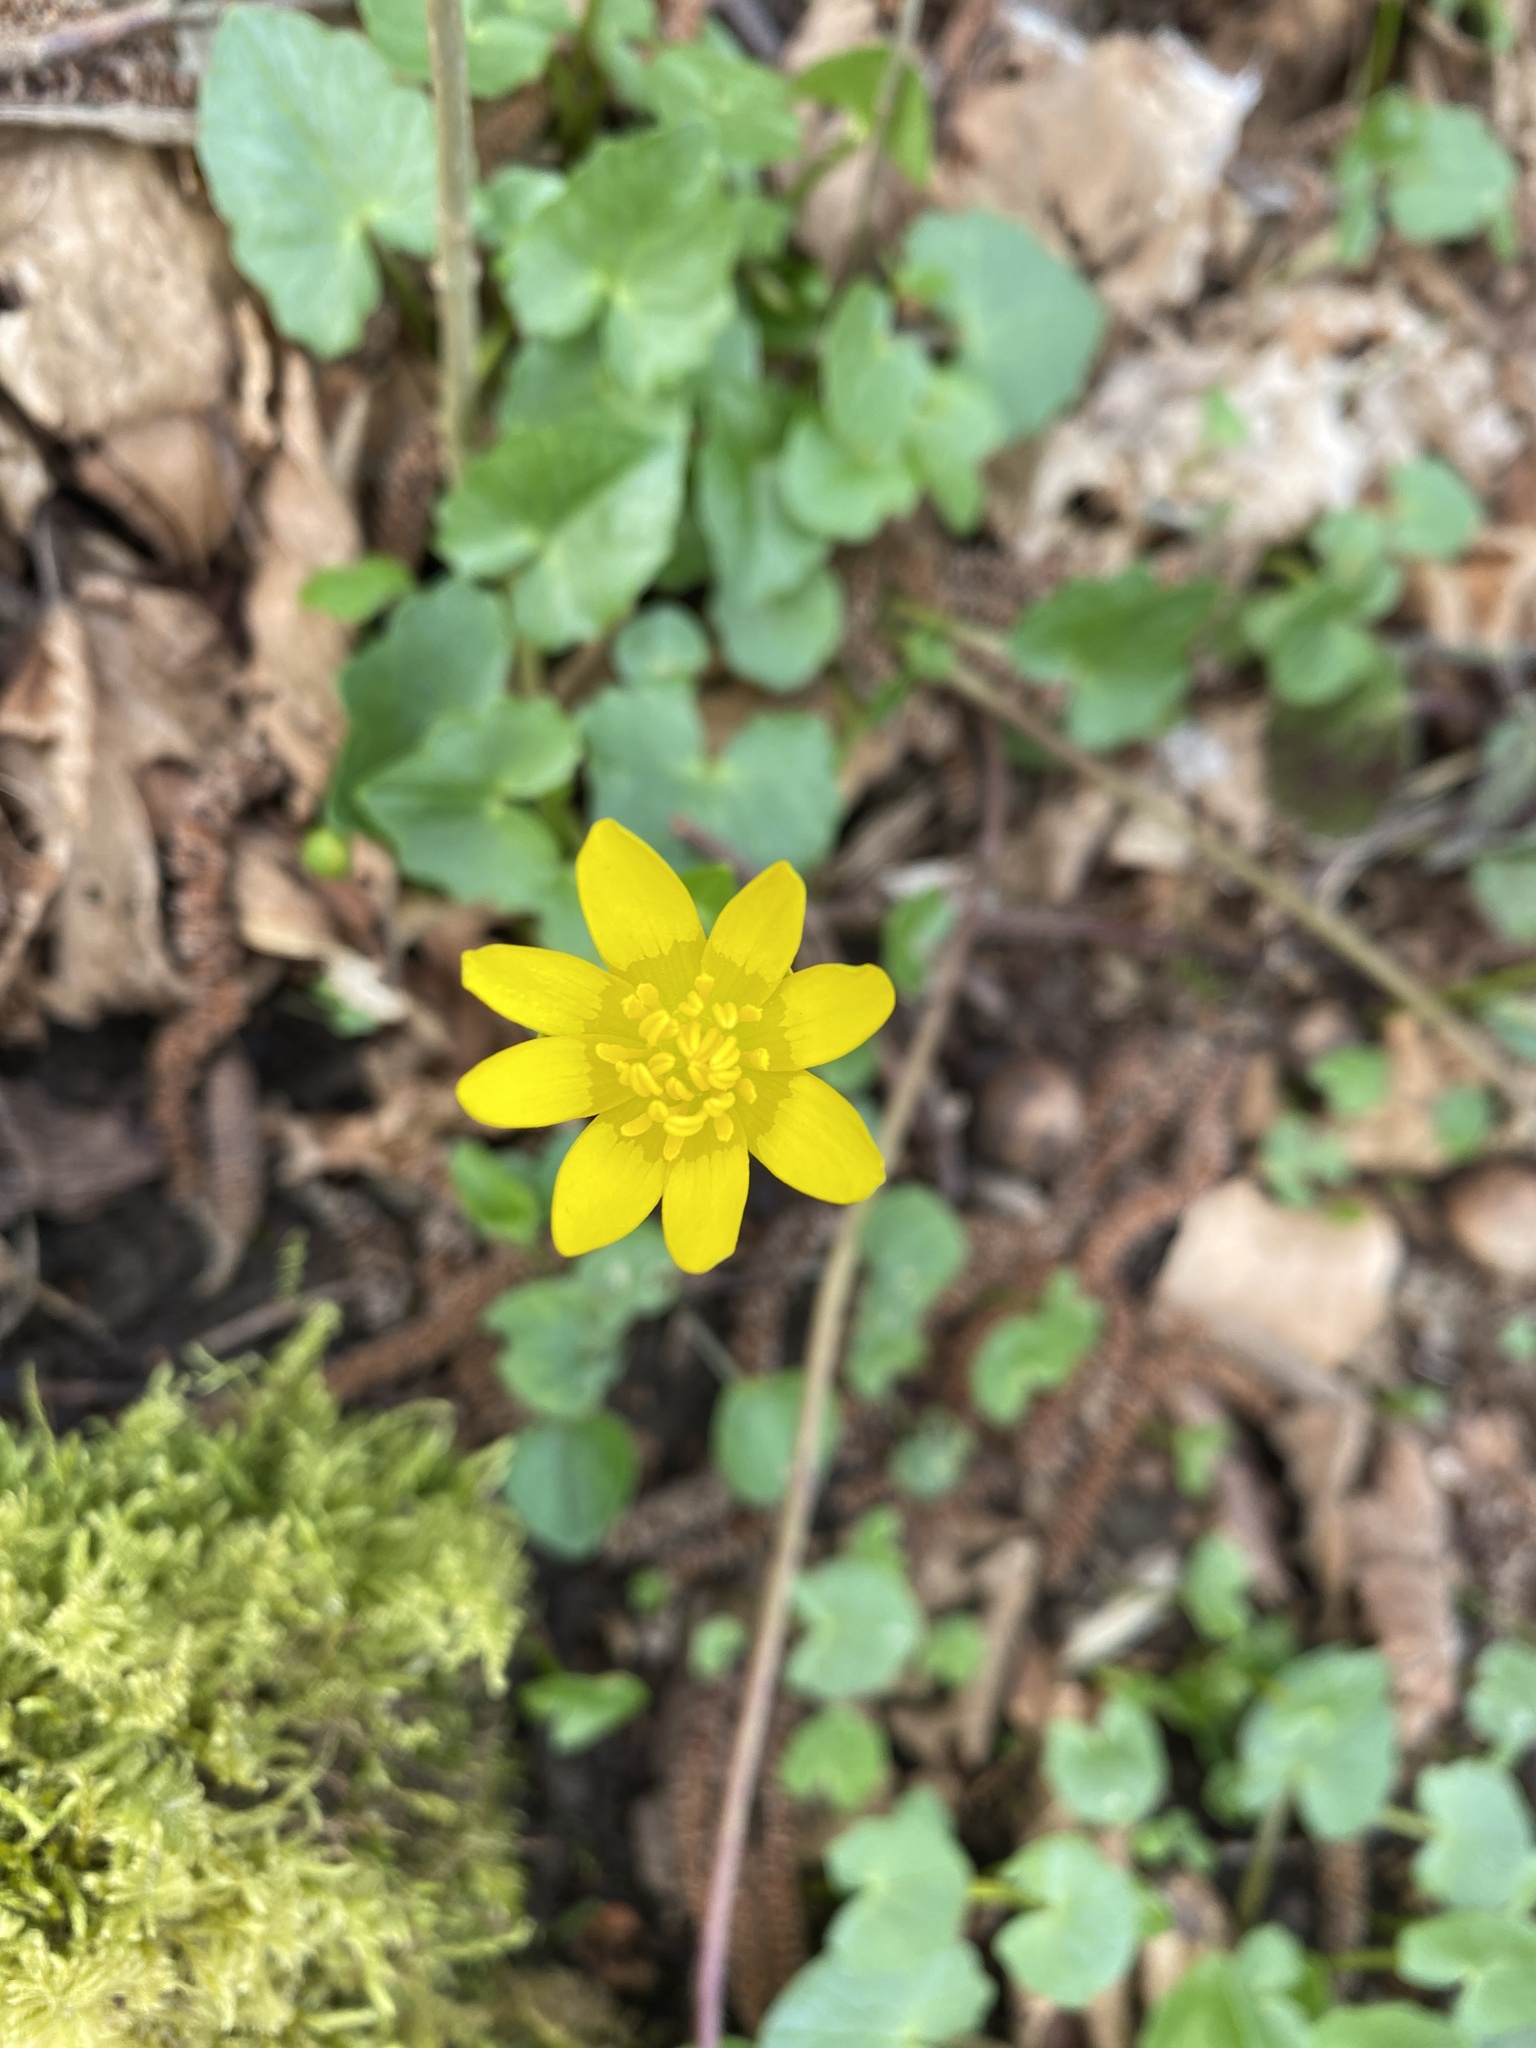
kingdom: Plantae
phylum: Tracheophyta
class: Magnoliopsida
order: Ranunculales
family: Ranunculaceae
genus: Ficaria
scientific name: Ficaria verna
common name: Lesser celandine
